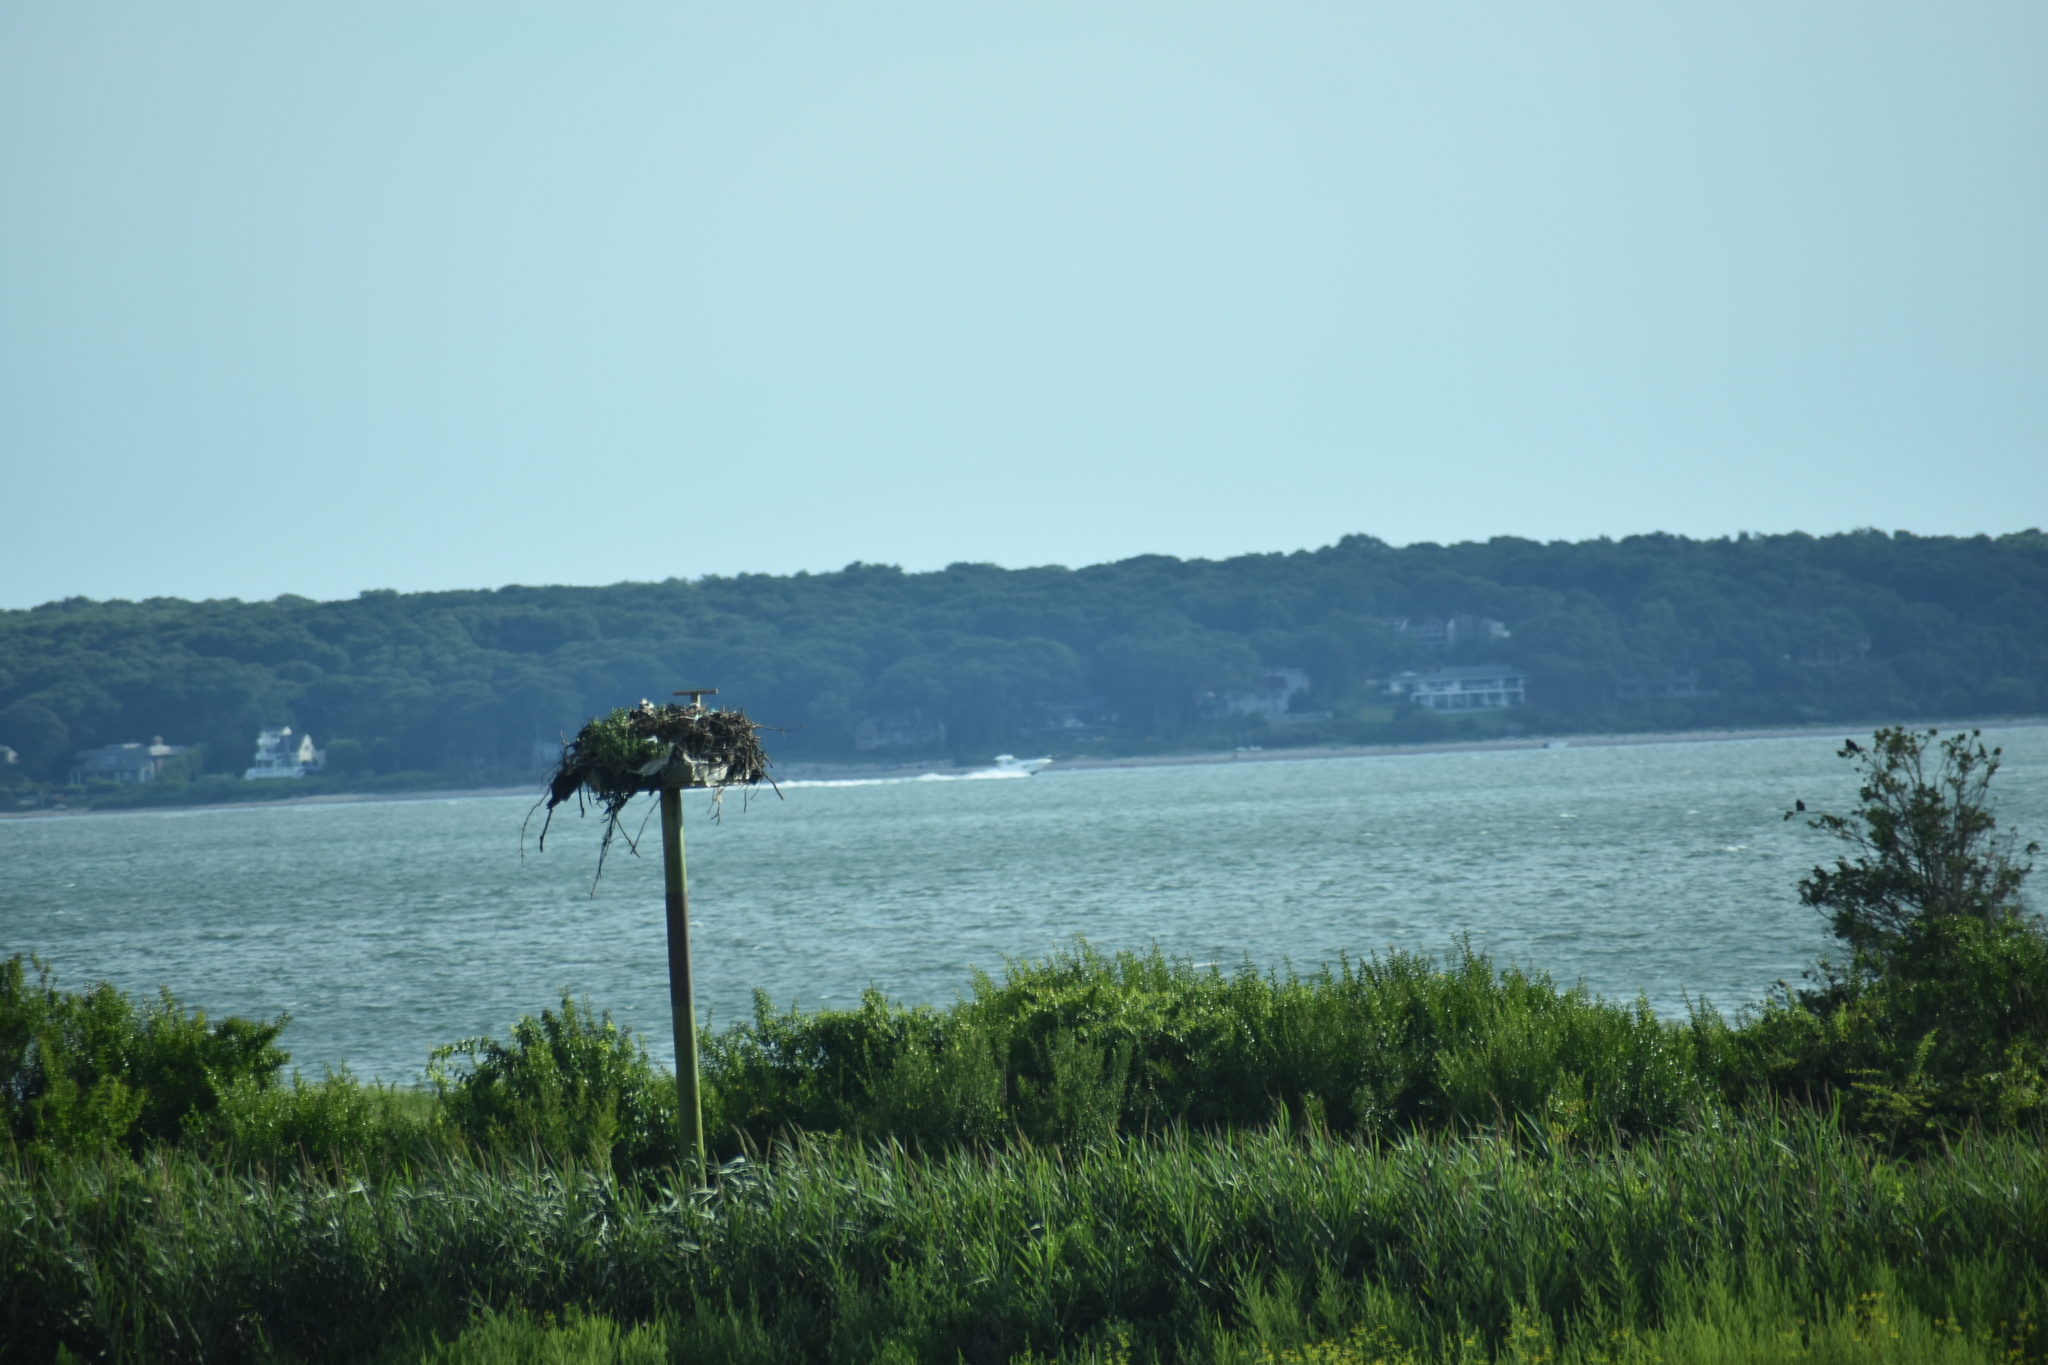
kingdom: Animalia
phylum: Chordata
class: Aves
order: Accipitriformes
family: Pandionidae
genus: Pandion
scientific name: Pandion haliaetus
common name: Osprey
